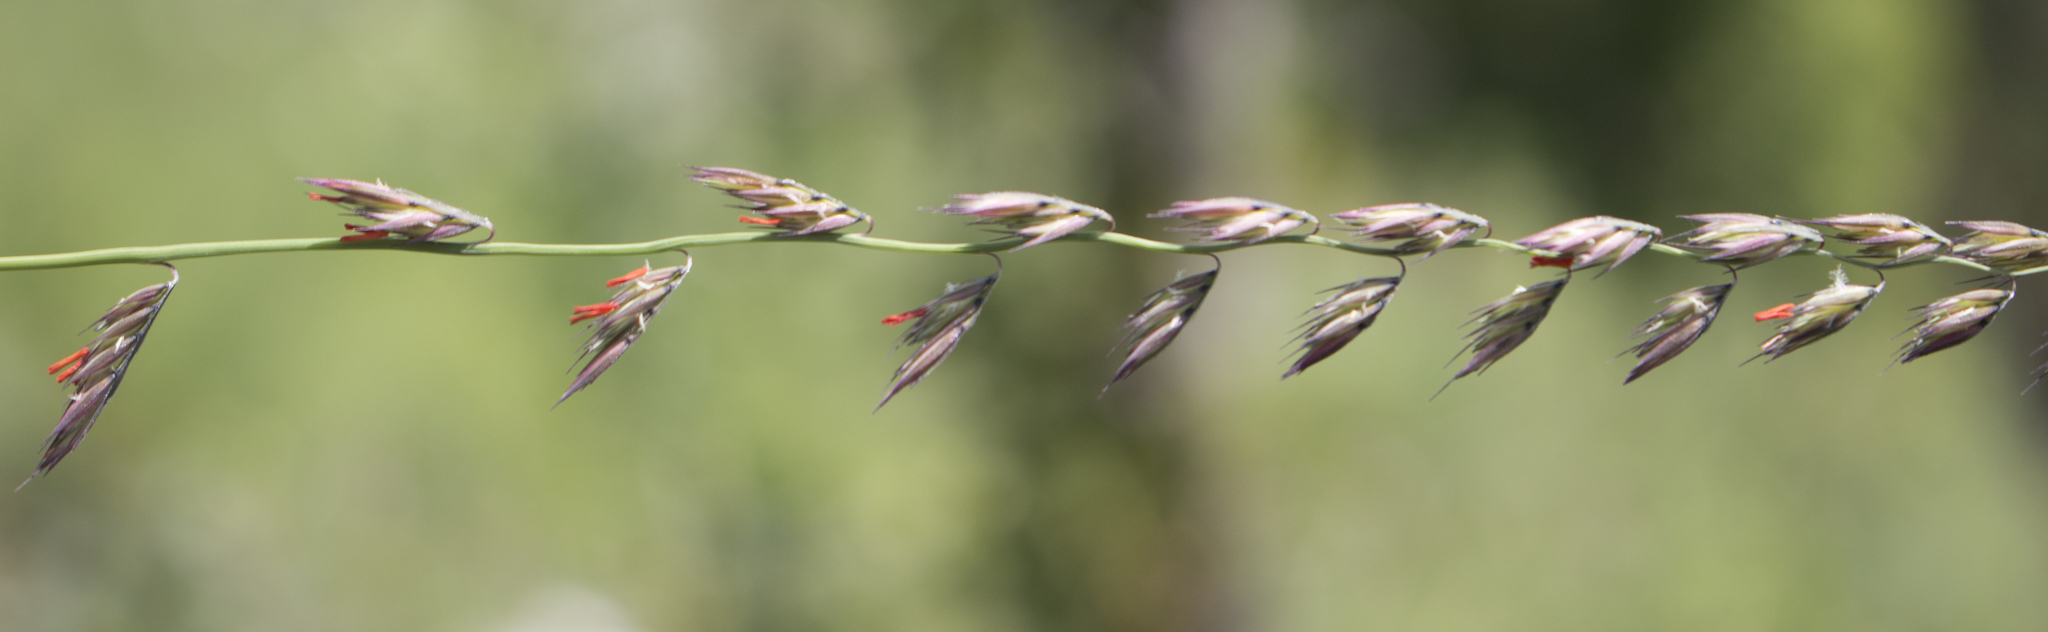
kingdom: Plantae
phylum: Tracheophyta
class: Liliopsida
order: Poales
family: Poaceae
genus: Bouteloua
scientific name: Bouteloua curtipendula
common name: Side-oats grama
